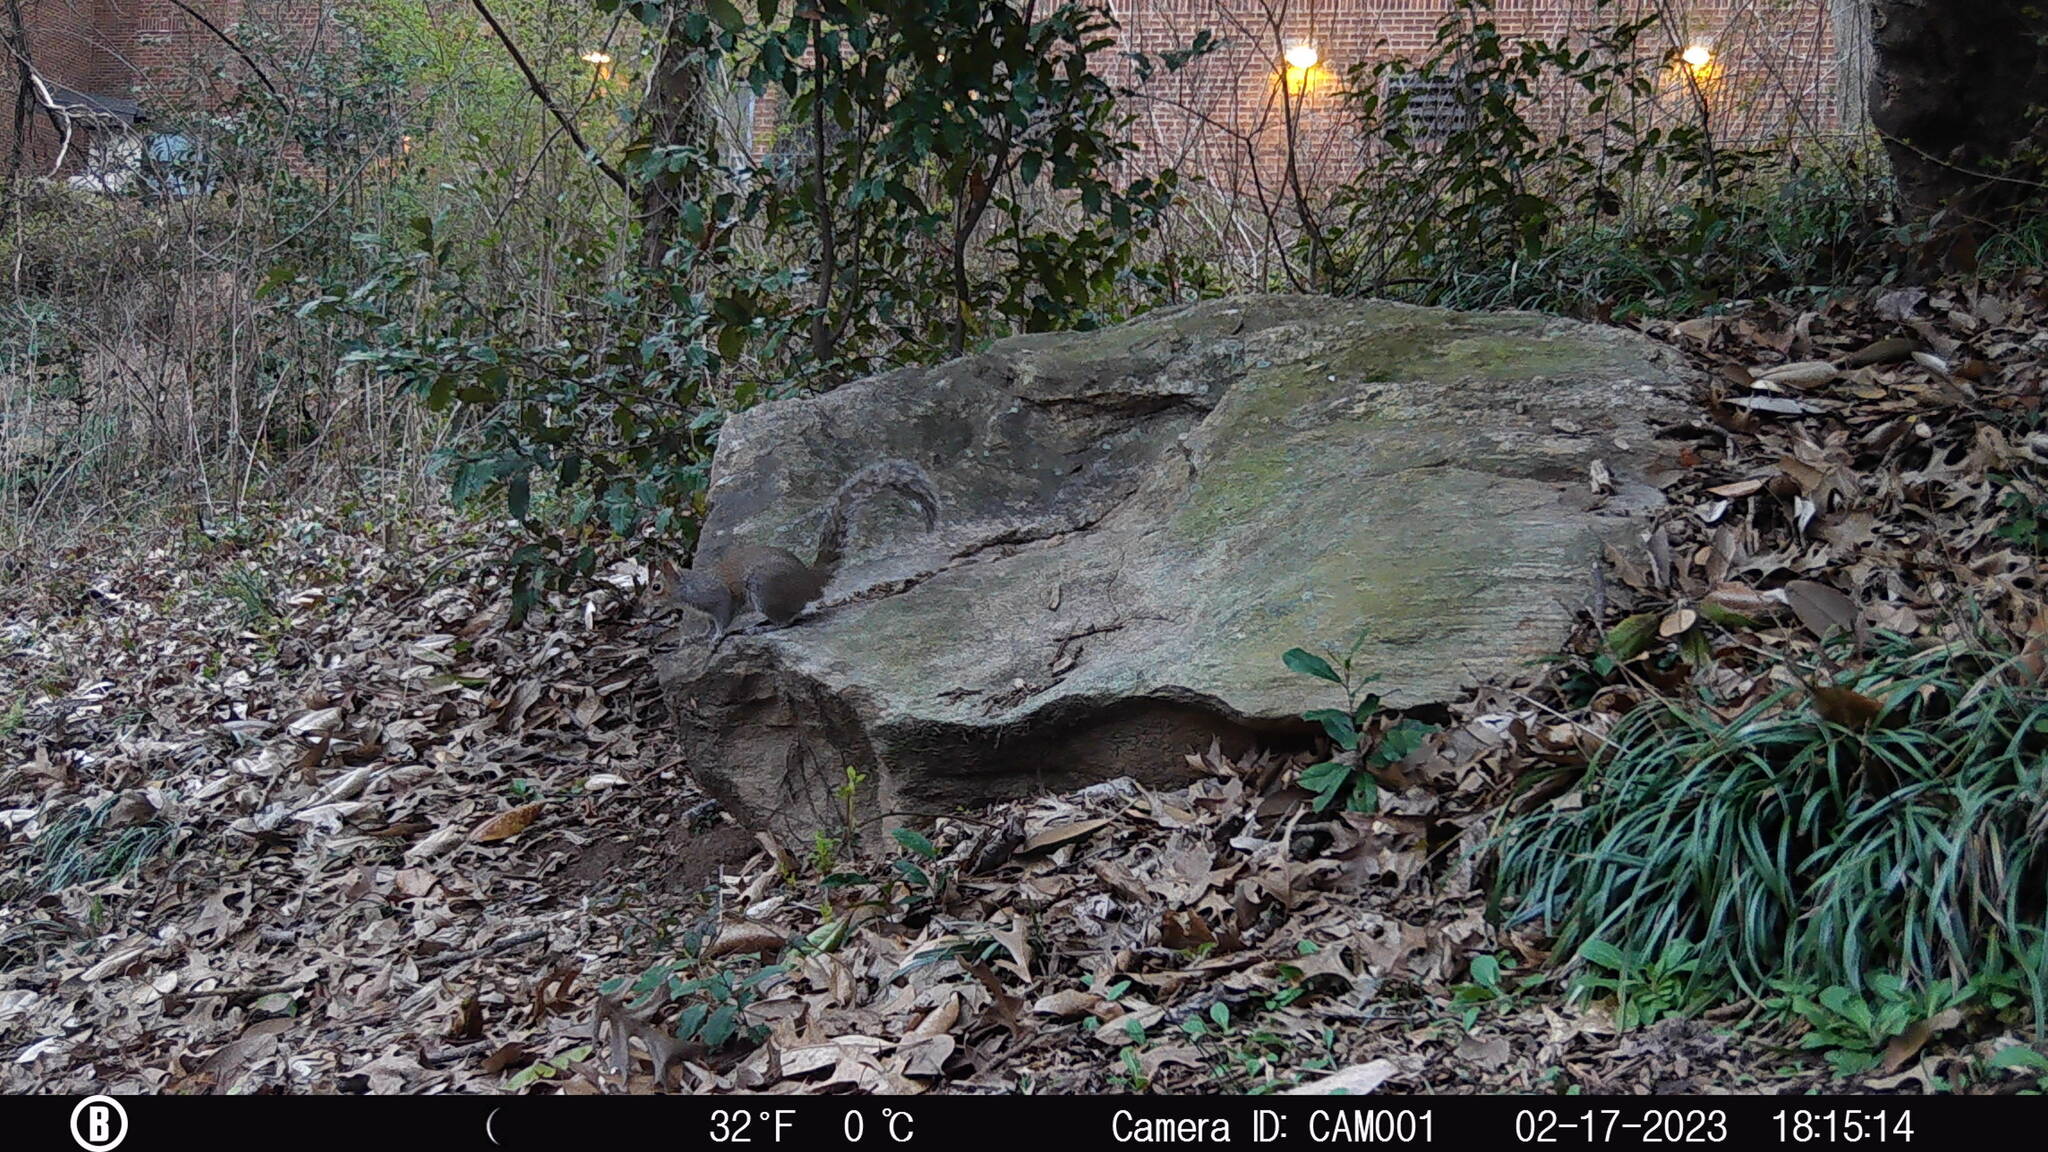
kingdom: Animalia
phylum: Chordata
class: Mammalia
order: Rodentia
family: Sciuridae
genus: Sciurus
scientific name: Sciurus carolinensis
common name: Eastern gray squirrel
